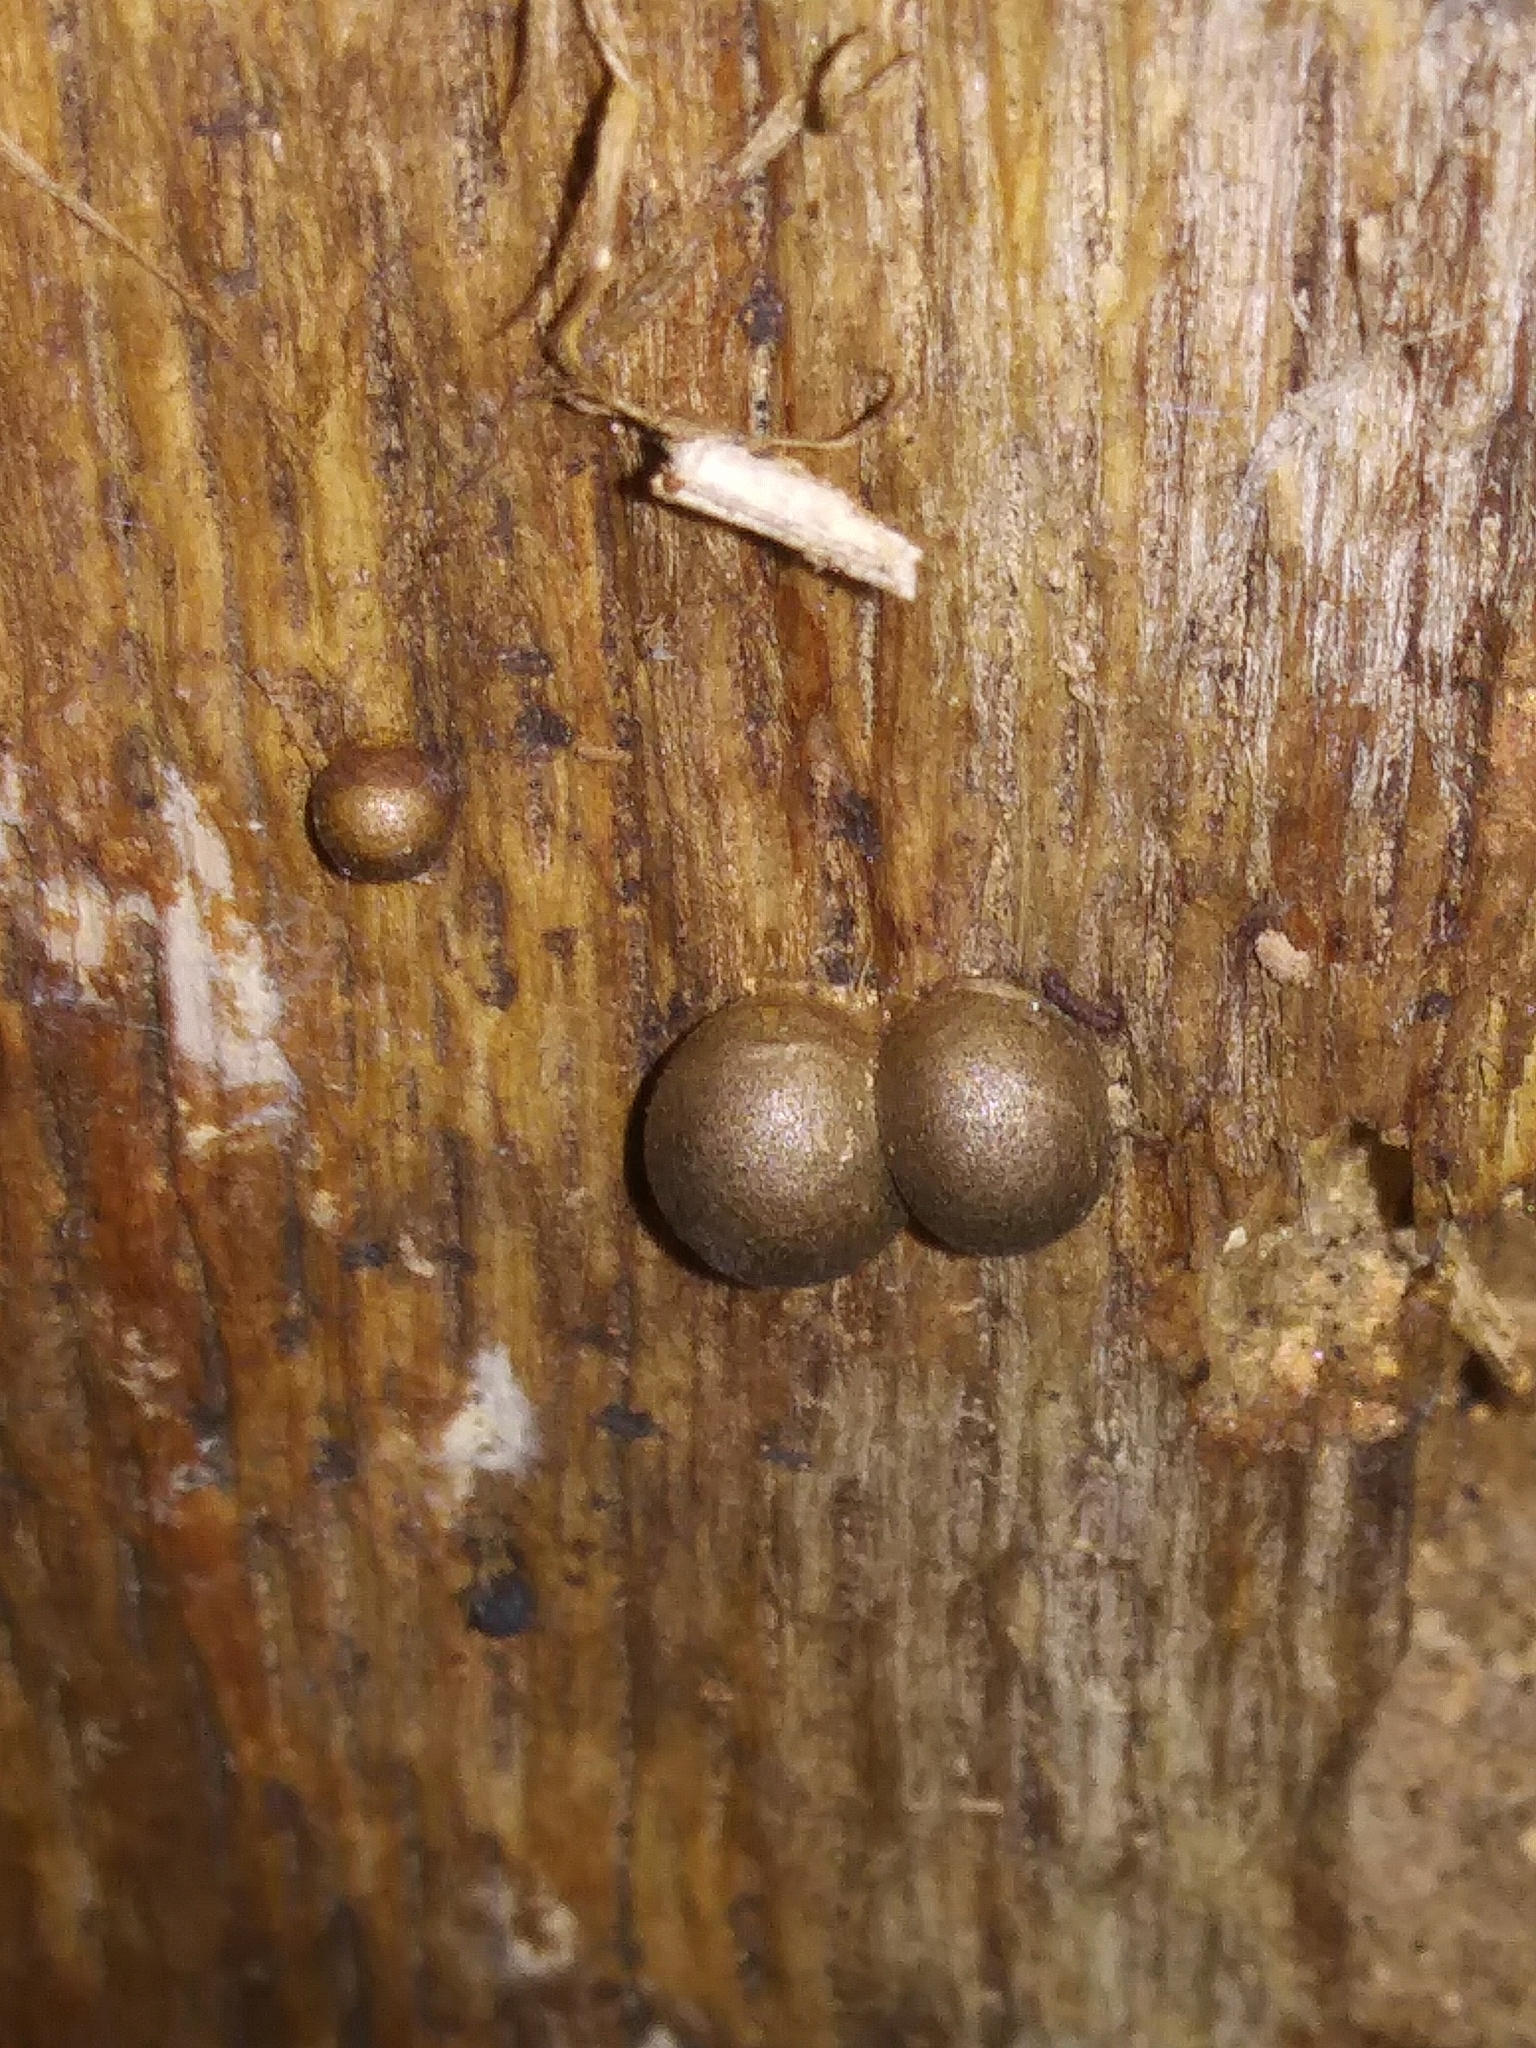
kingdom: Protozoa
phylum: Mycetozoa
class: Myxomycetes
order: Cribrariales
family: Tubiferaceae
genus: Lycogala
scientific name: Lycogala epidendrum
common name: Wolf's milk
